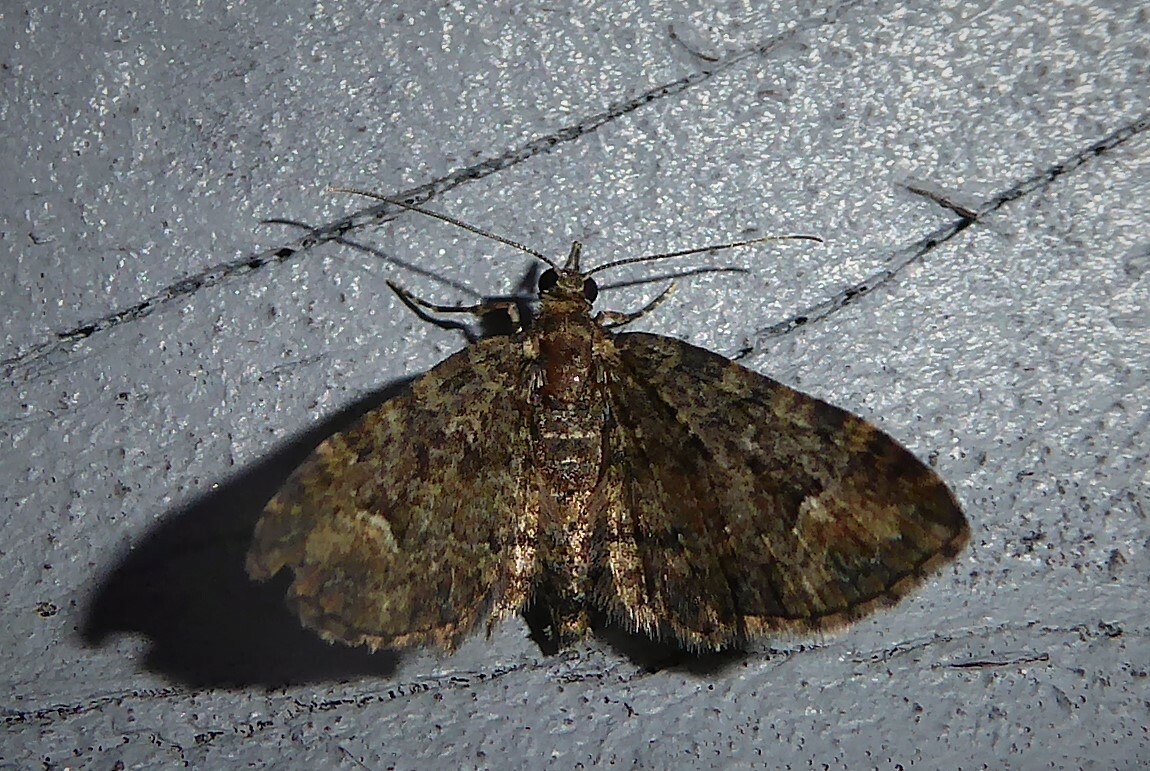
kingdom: Animalia
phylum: Arthropoda
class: Insecta
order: Lepidoptera
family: Geometridae
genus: Pasiphilodes
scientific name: Pasiphilodes testulata
